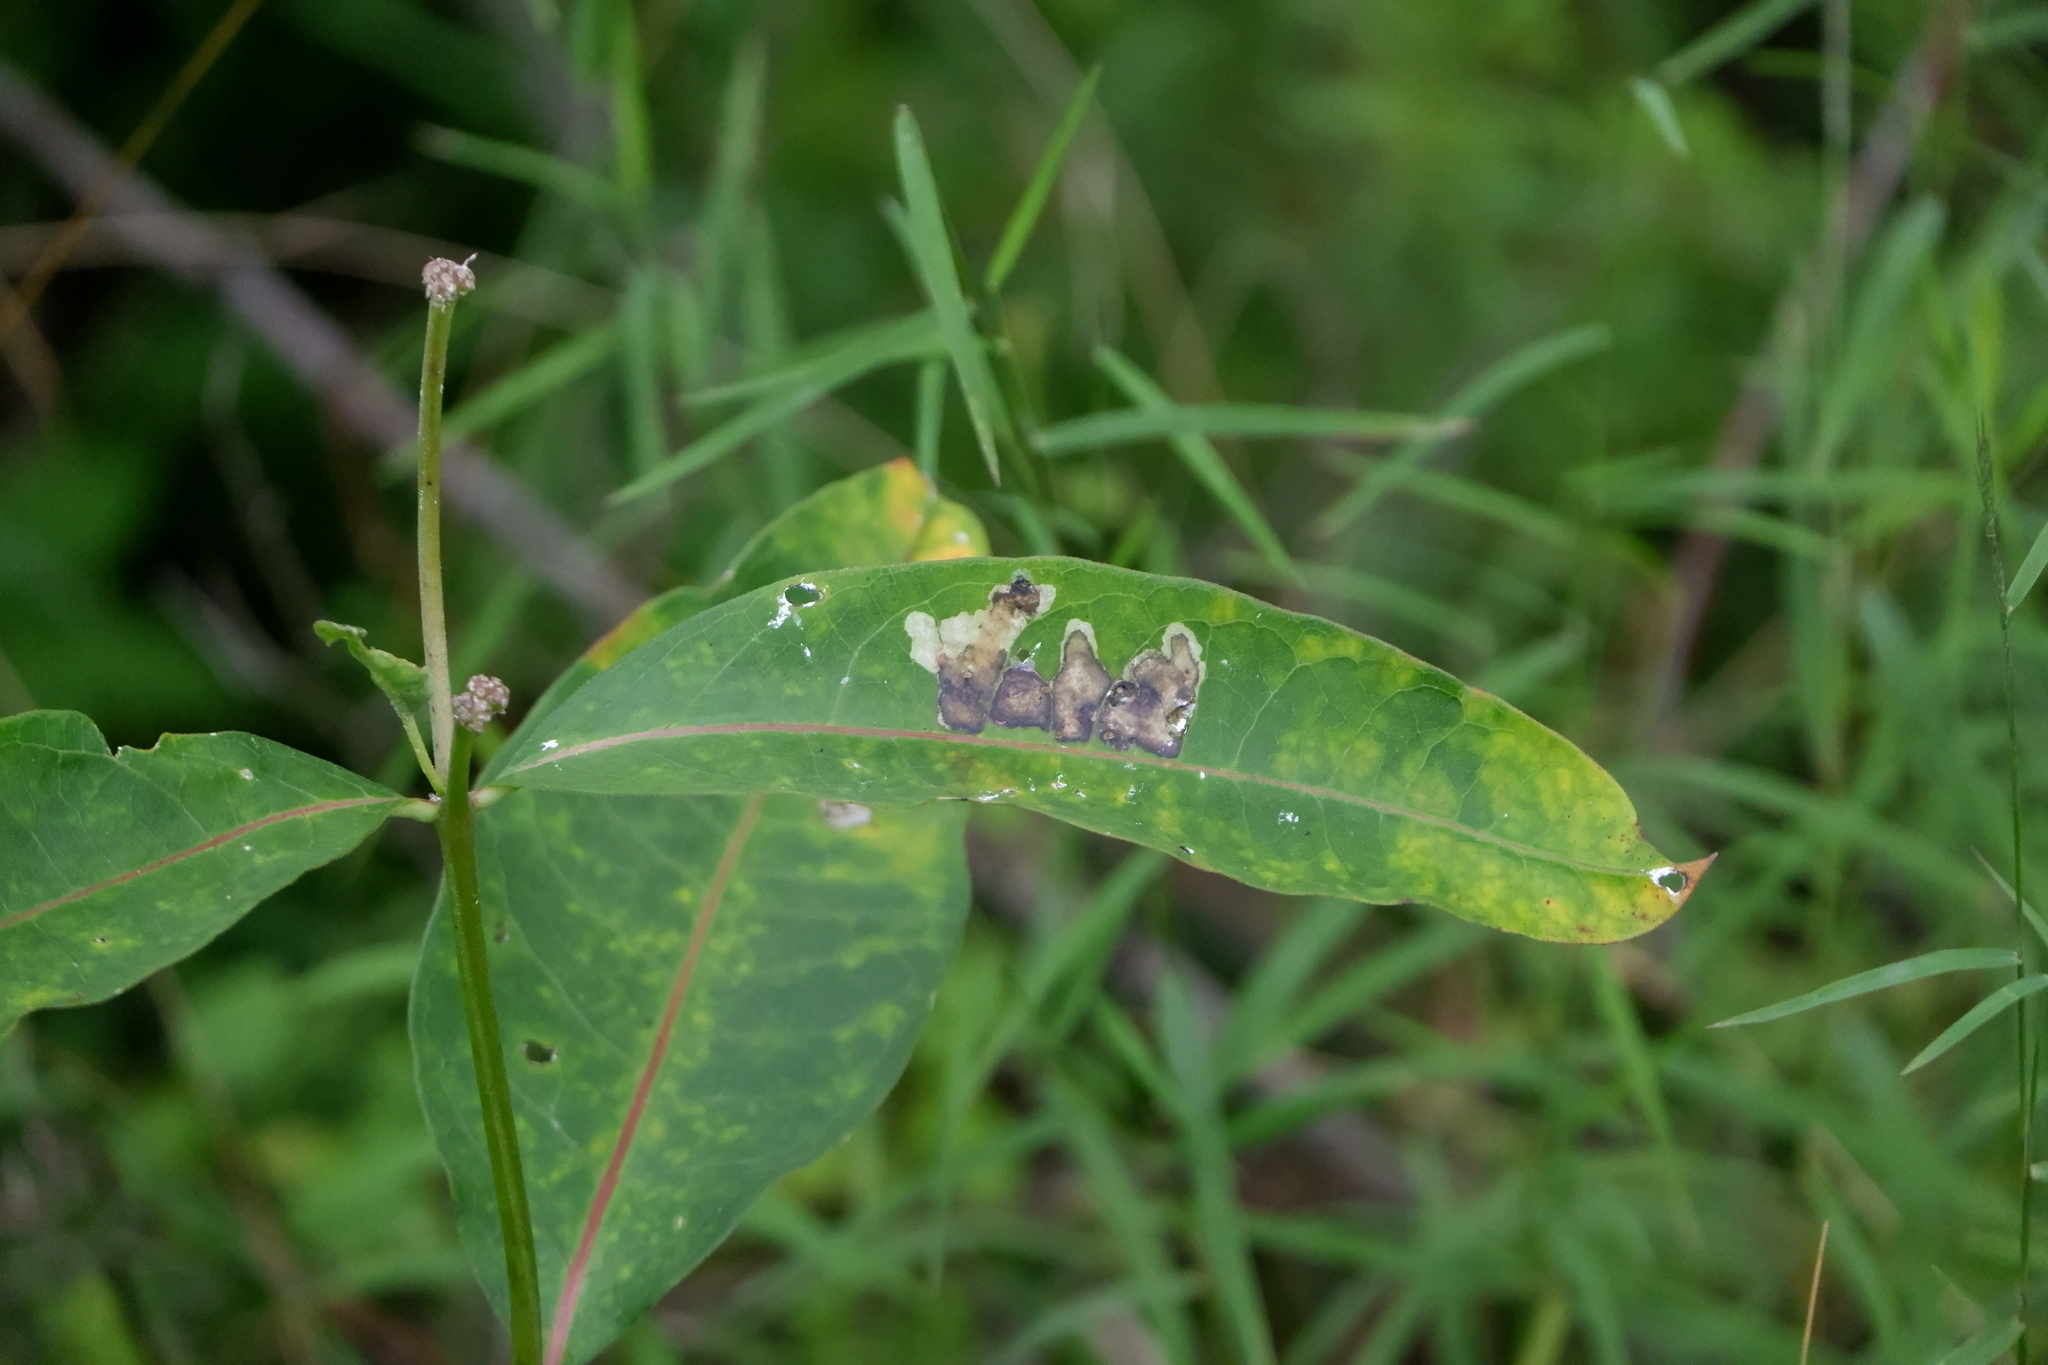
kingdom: Animalia
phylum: Arthropoda
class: Insecta
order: Diptera
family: Agromyzidae
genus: Liriomyza
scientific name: Liriomyza asclepiadis
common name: Milkweed leaf-miner fly
